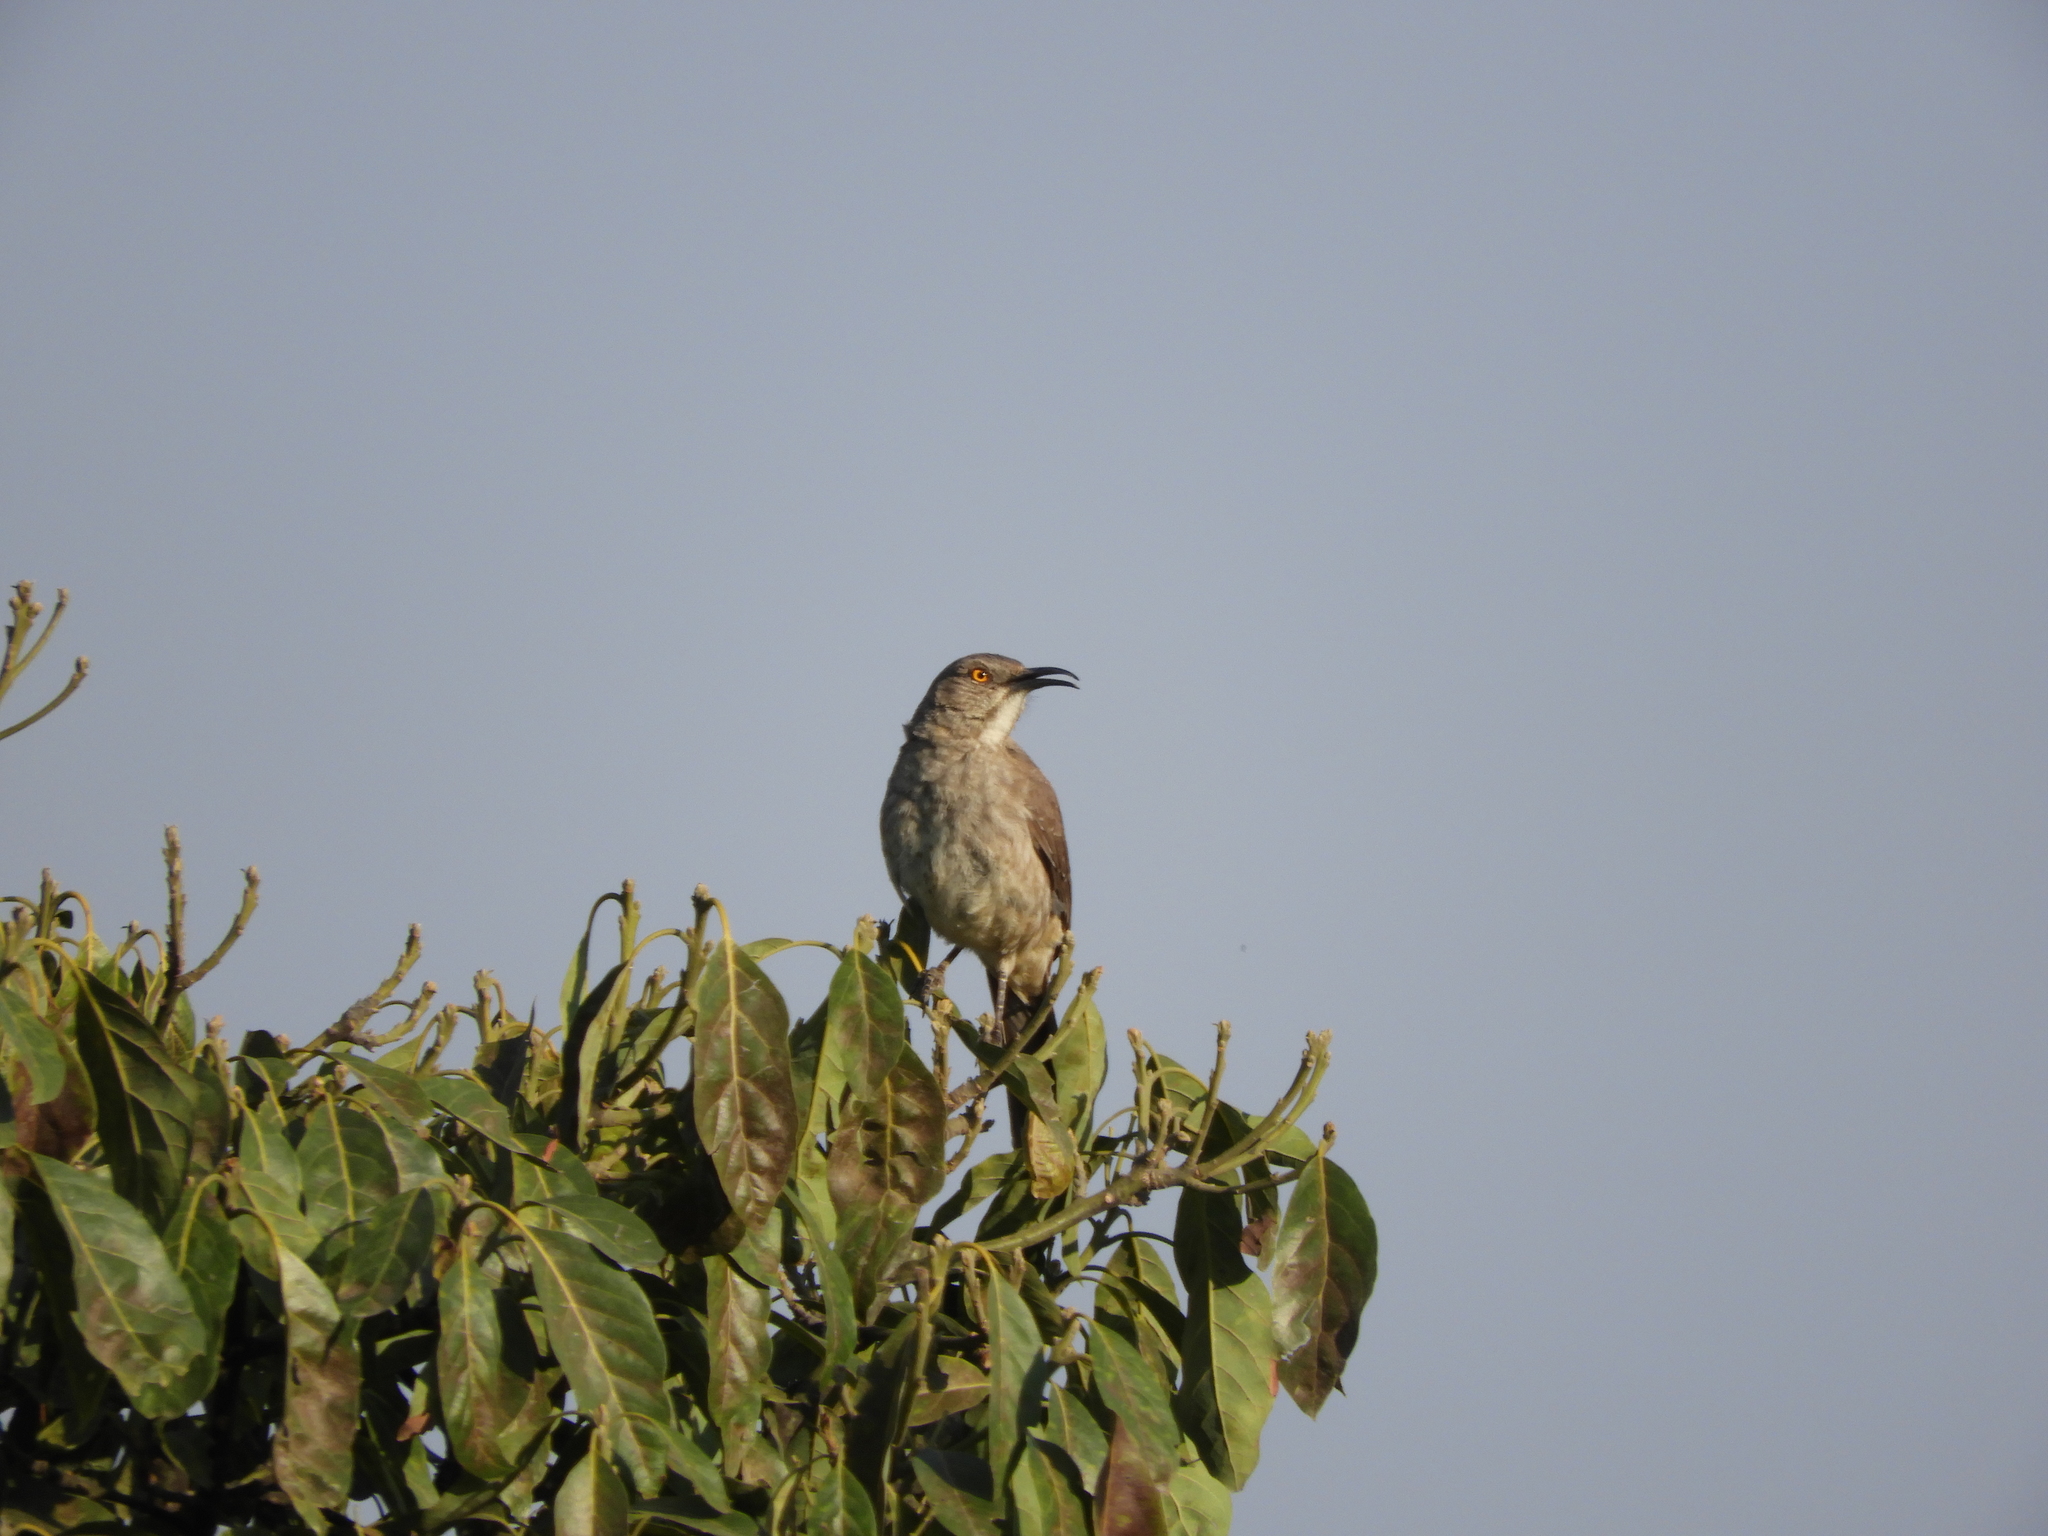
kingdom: Animalia
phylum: Chordata
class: Aves
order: Passeriformes
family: Mimidae
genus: Toxostoma
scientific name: Toxostoma curvirostre
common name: Curve-billed thrasher
